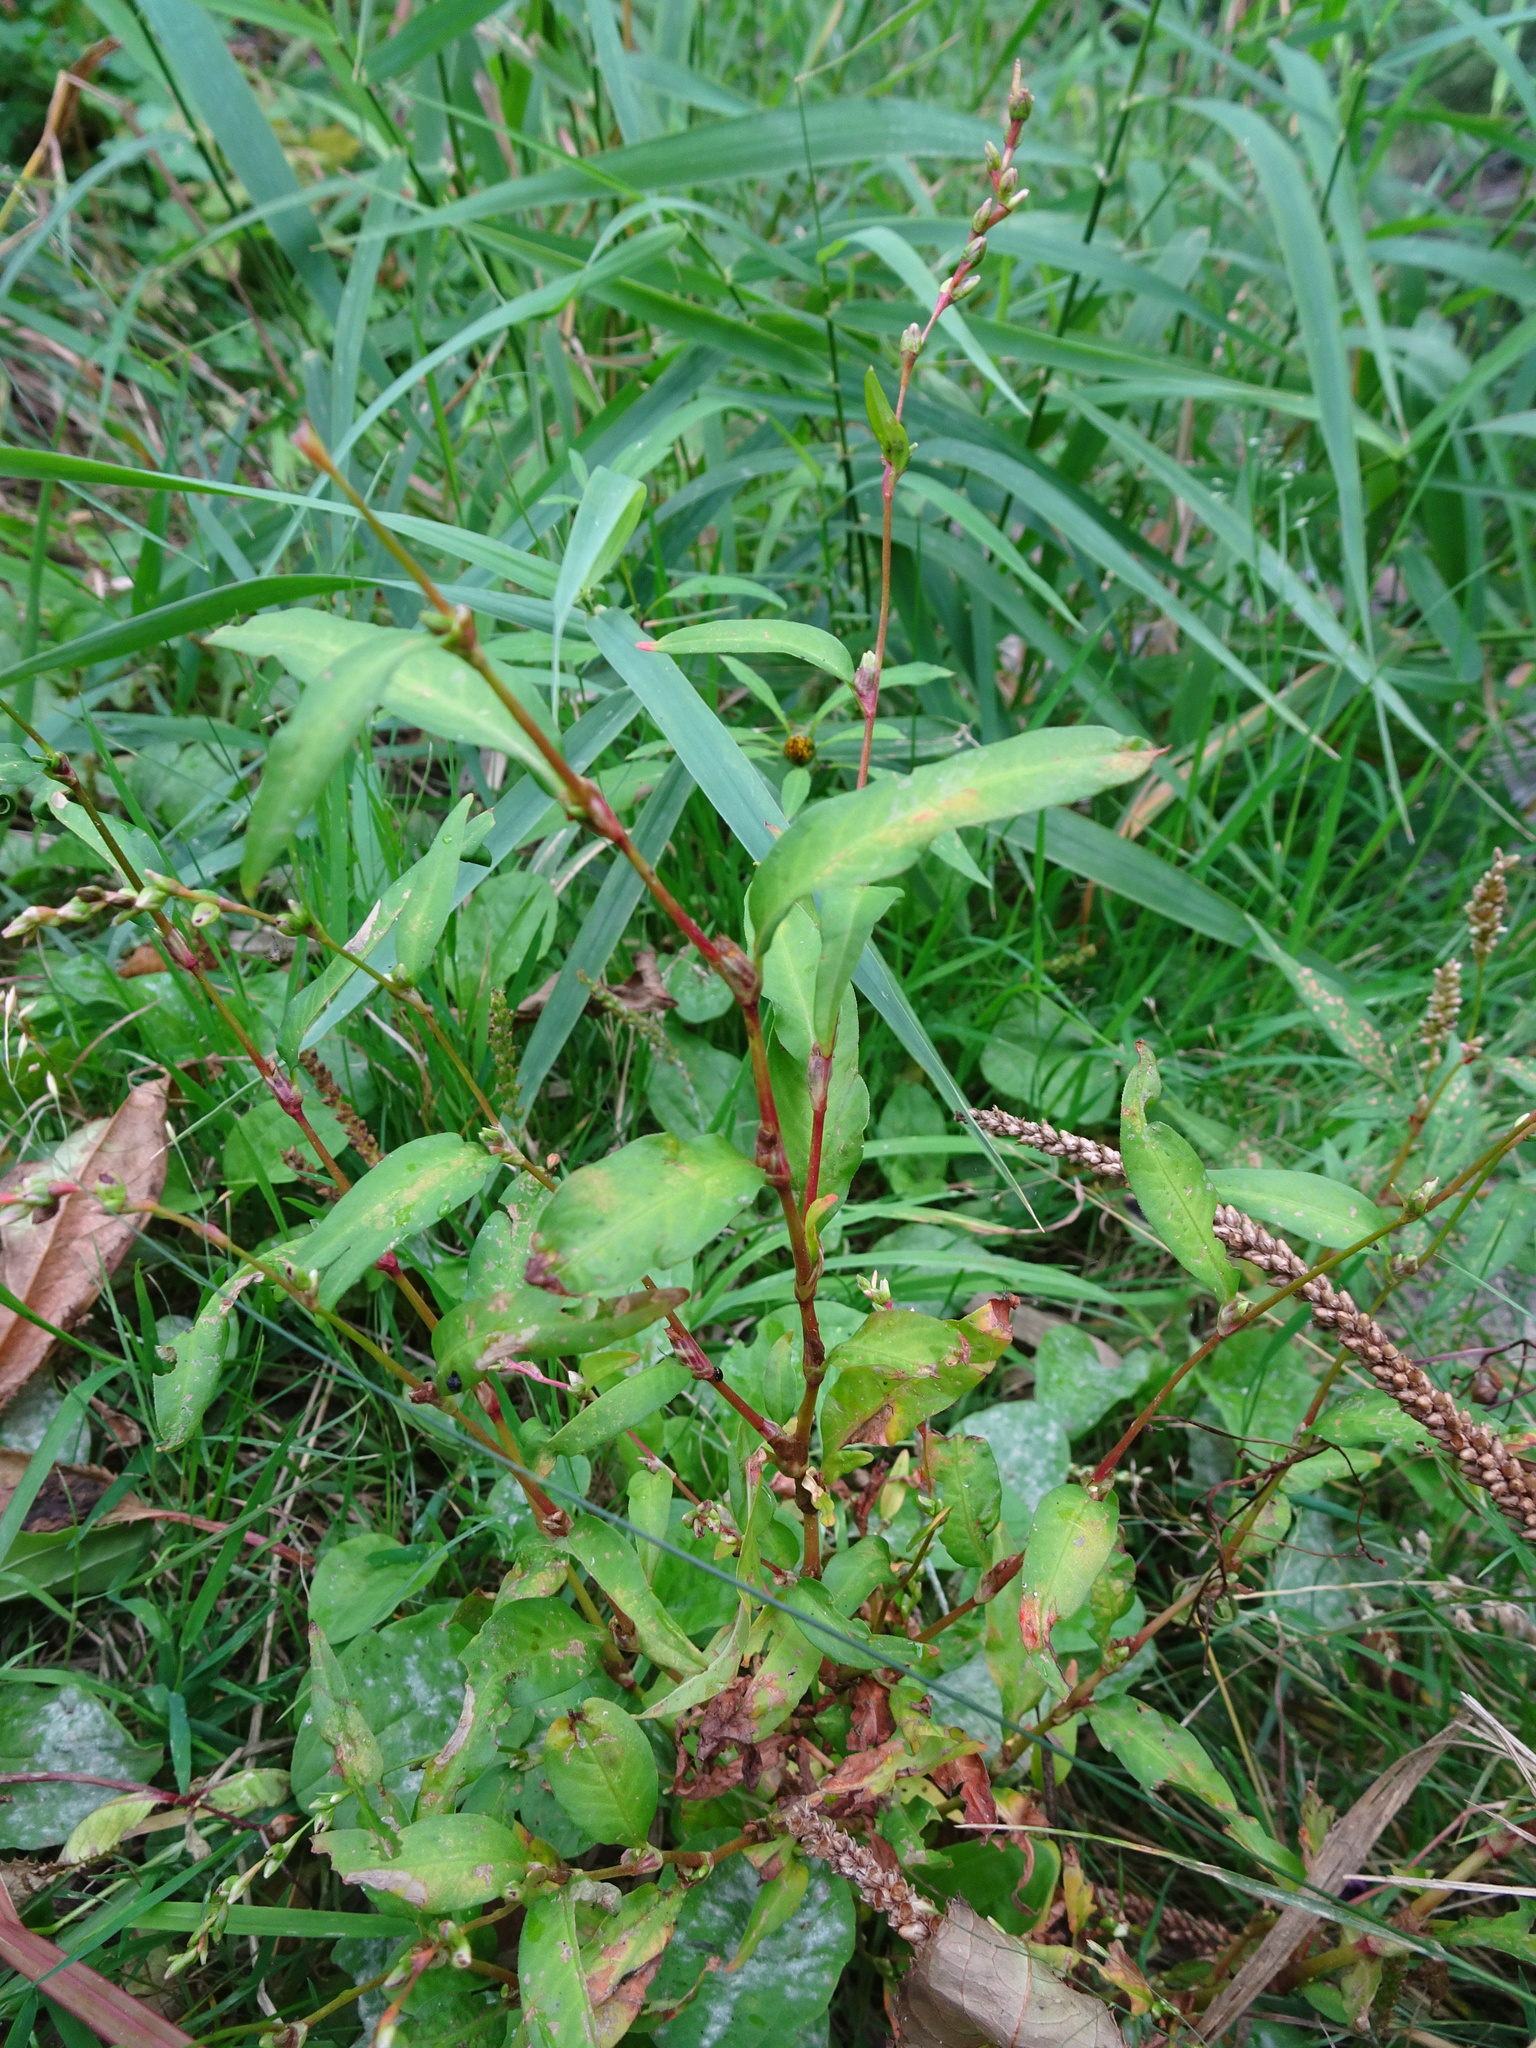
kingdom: Plantae
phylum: Tracheophyta
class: Magnoliopsida
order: Caryophyllales
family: Polygonaceae
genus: Persicaria
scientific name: Persicaria hydropiper
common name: Water-pepper
